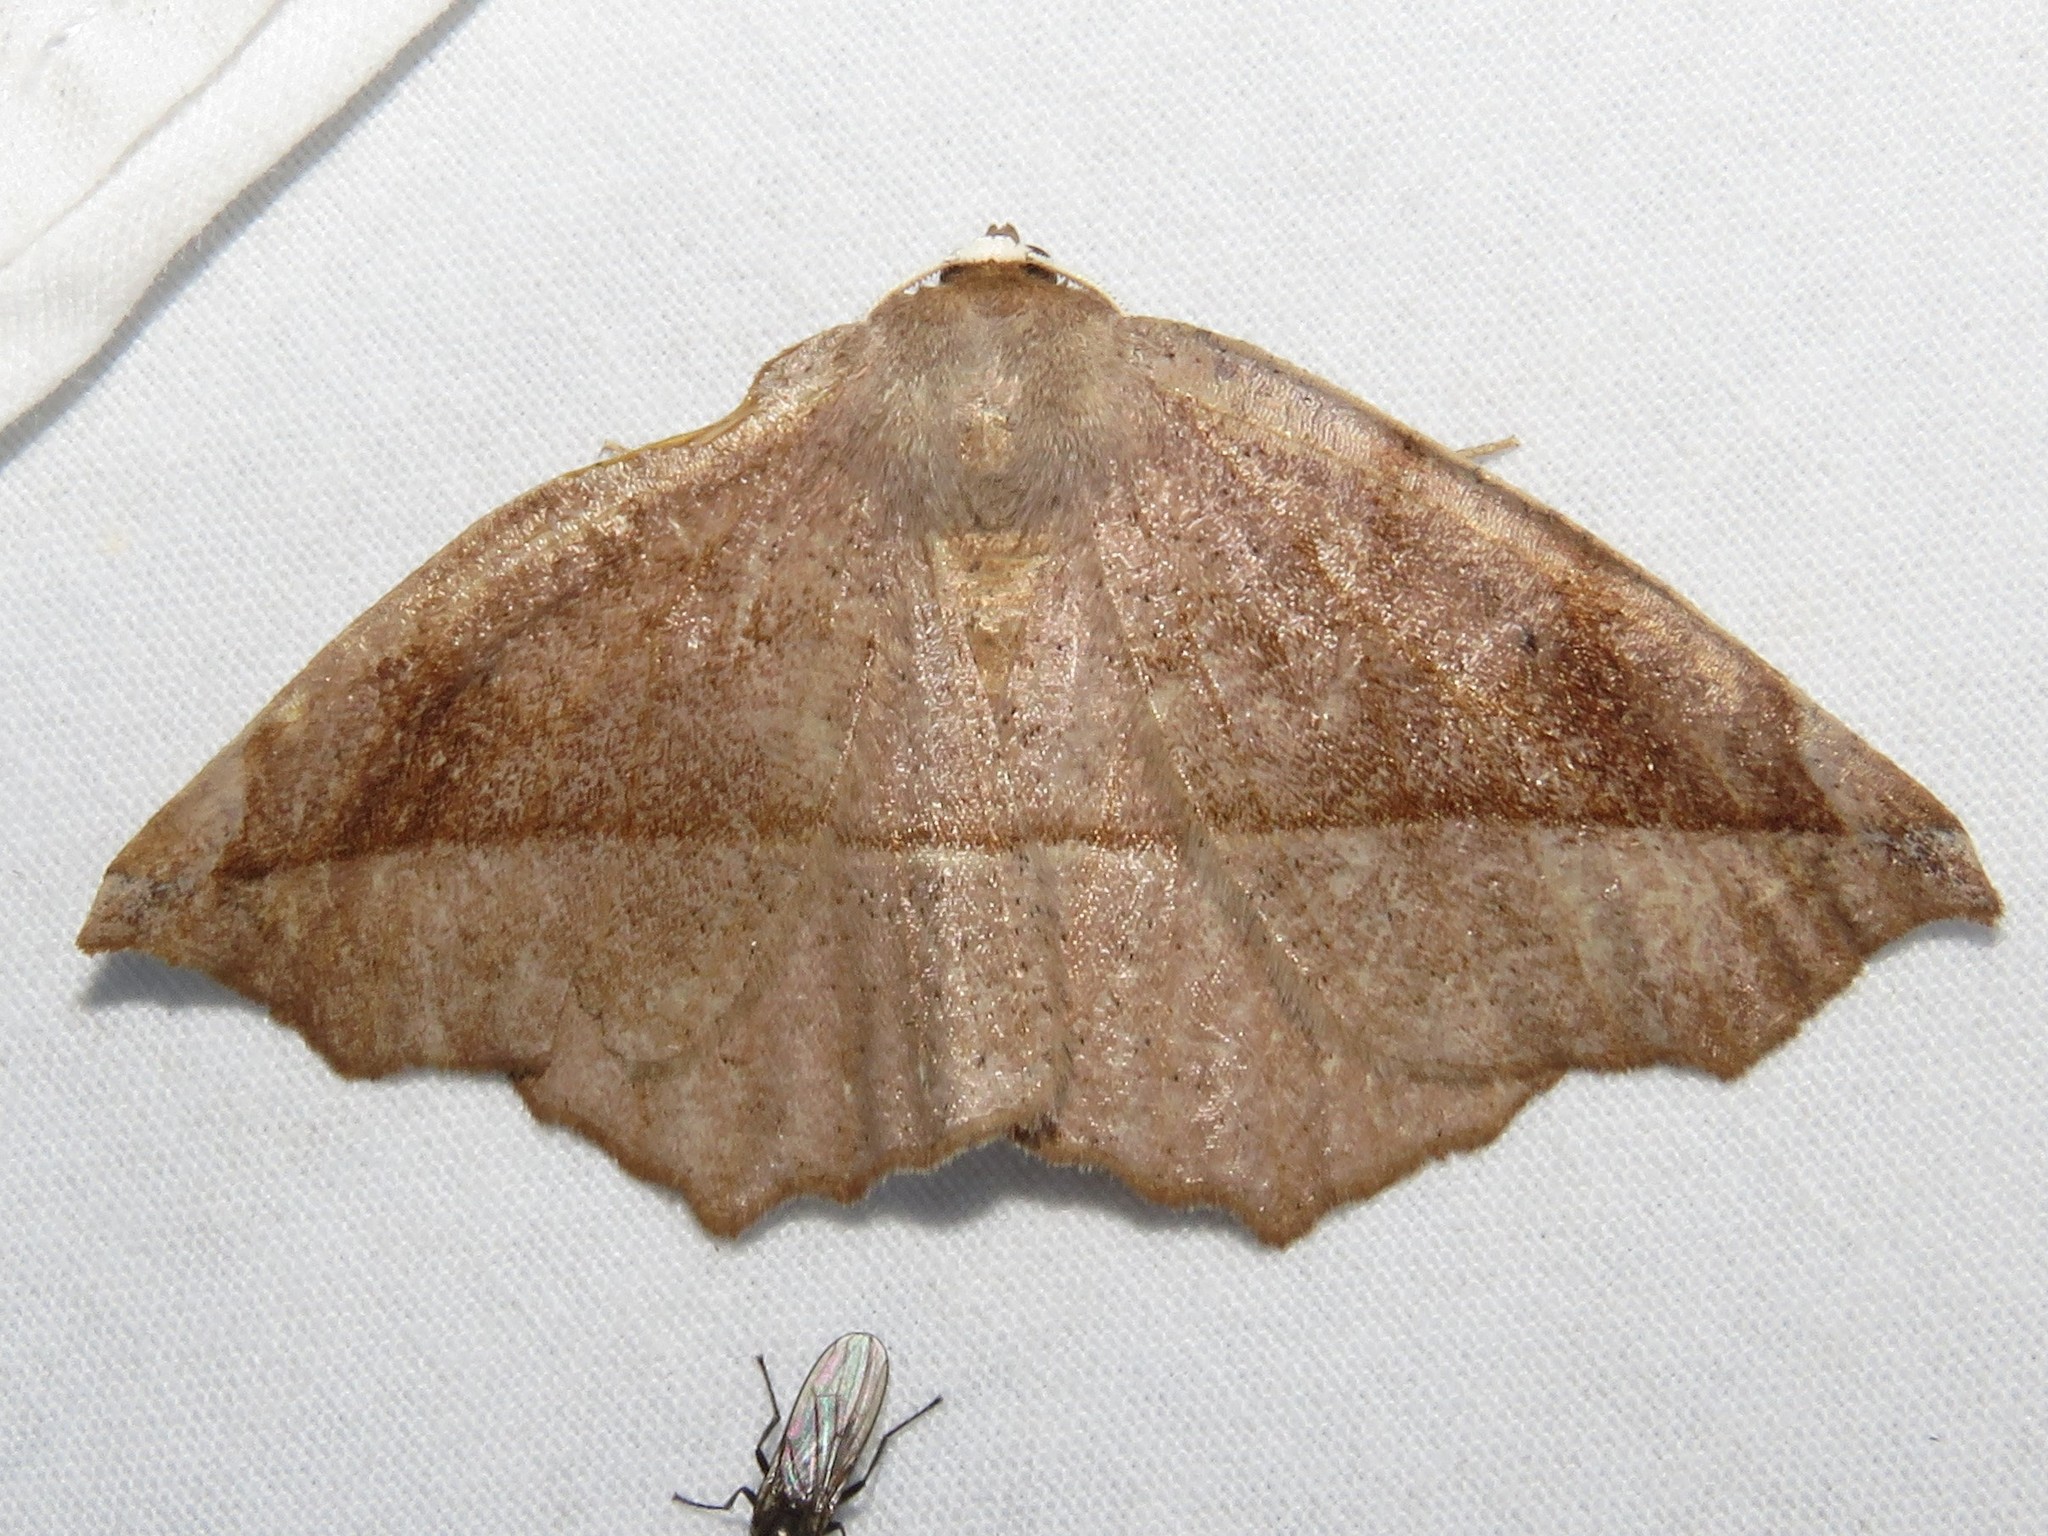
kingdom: Animalia
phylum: Arthropoda
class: Insecta
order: Lepidoptera
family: Geometridae
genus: Eutrapela
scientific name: Eutrapela clemataria
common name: Curved-toothed geometer
